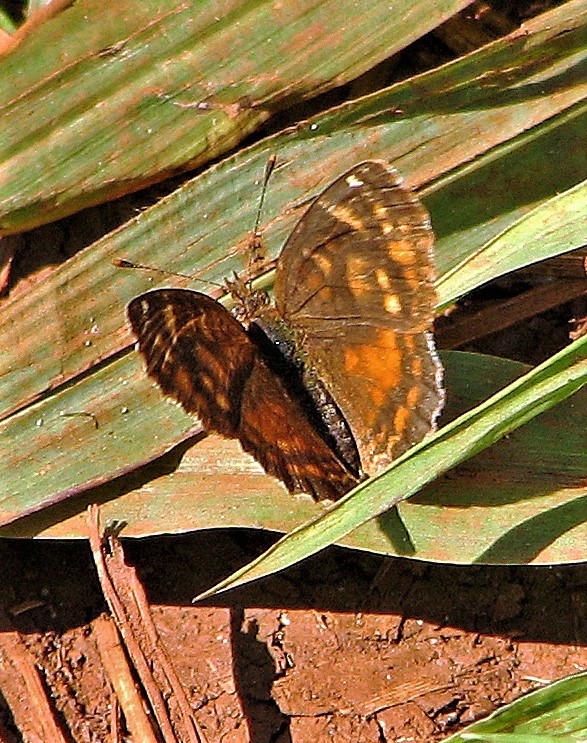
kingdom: Animalia
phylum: Arthropoda
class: Insecta
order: Lepidoptera
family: Nymphalidae
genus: Ortilia
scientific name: Ortilia velica
